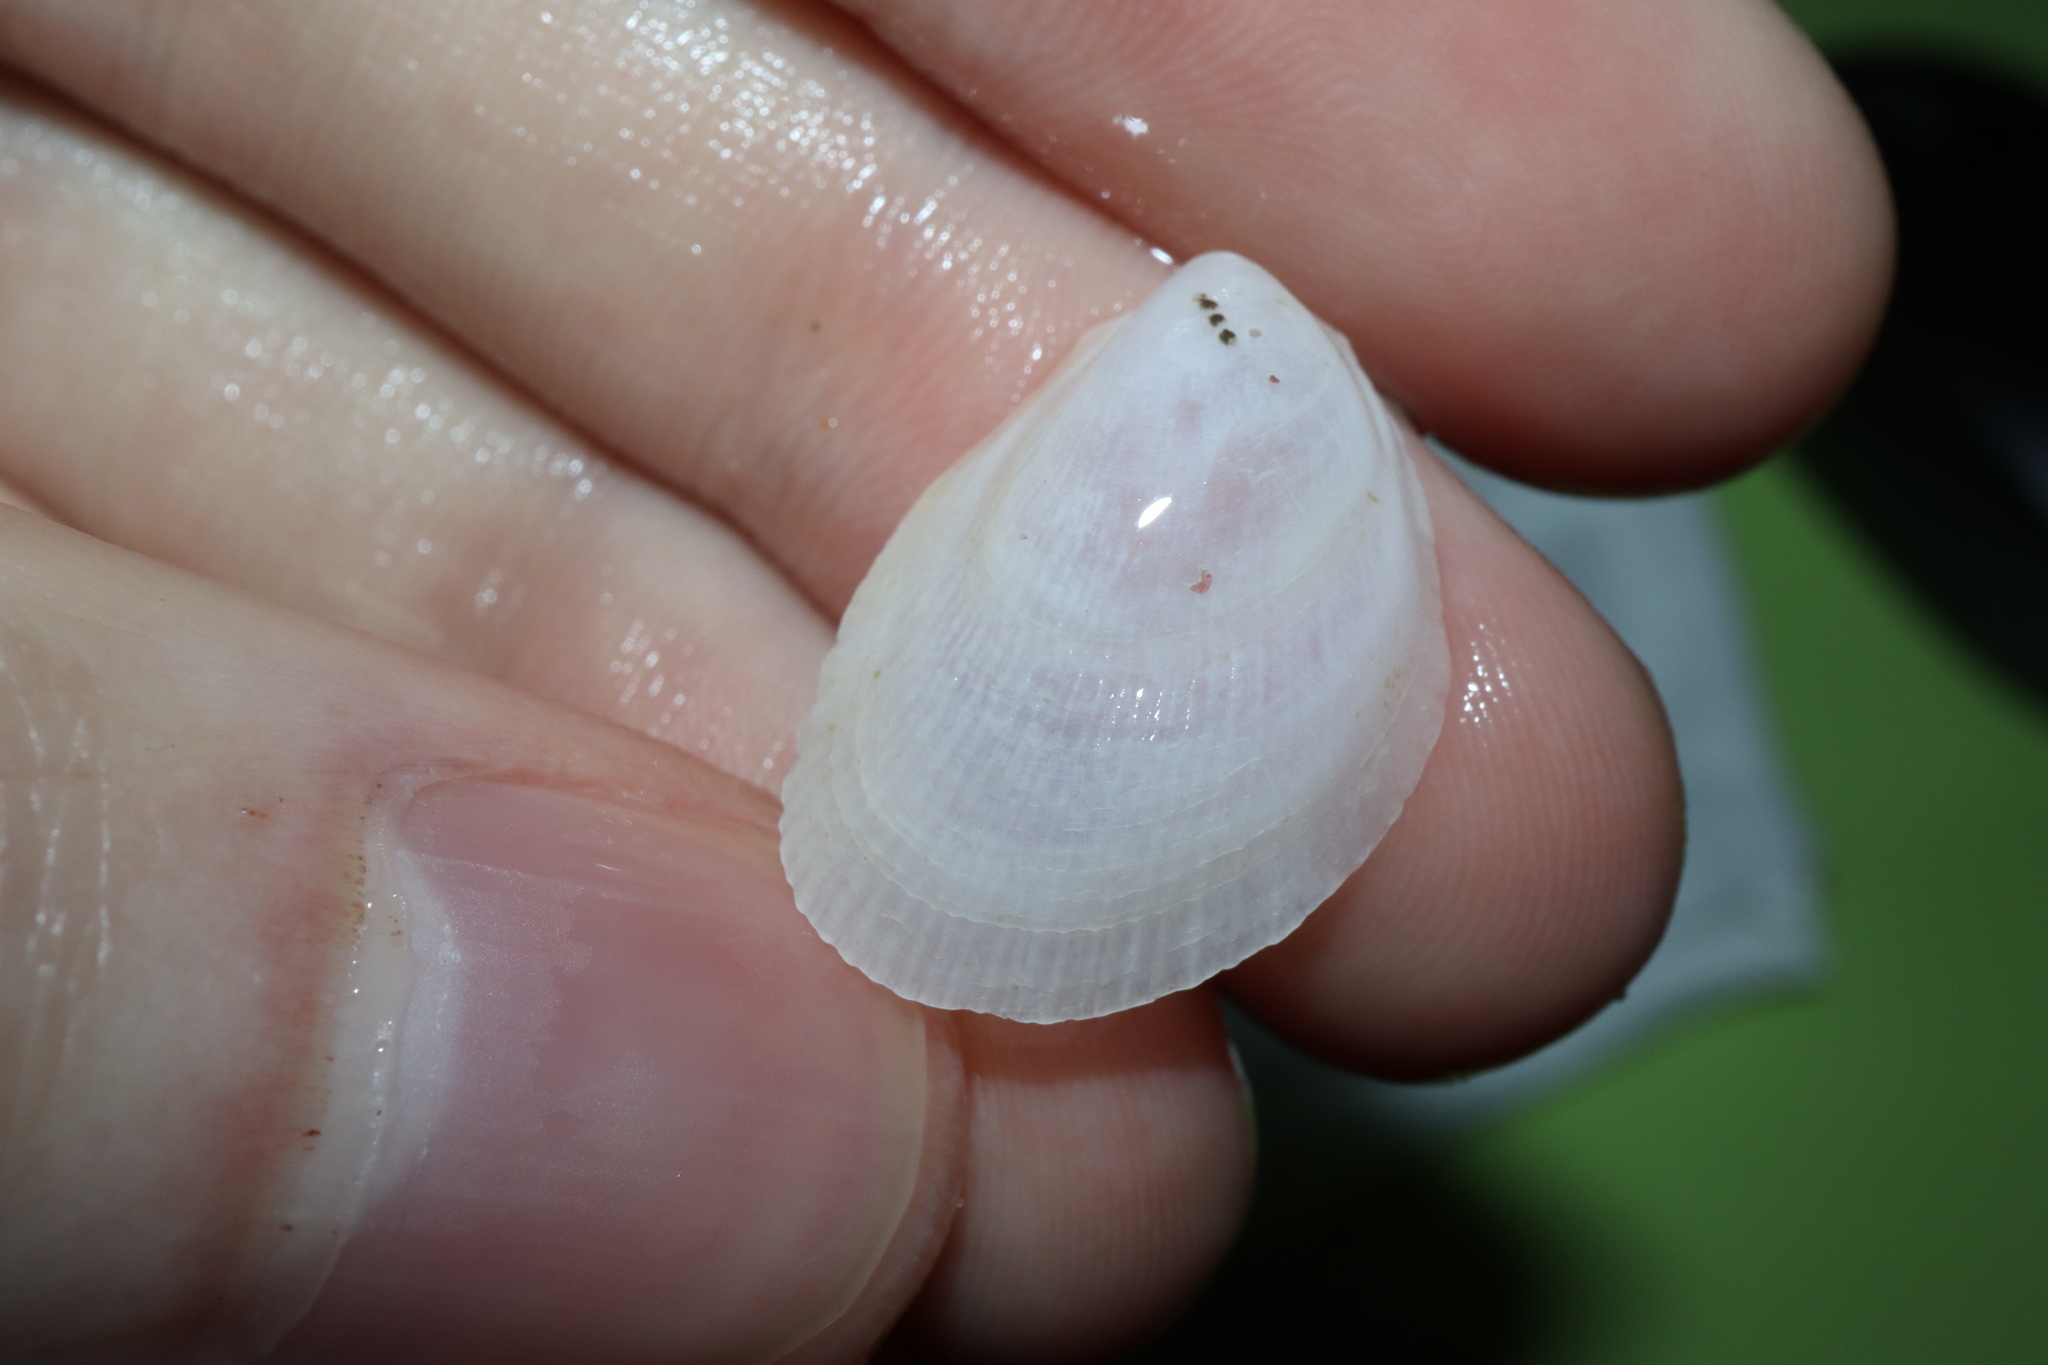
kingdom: Animalia
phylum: Mollusca
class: Bivalvia
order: Limida
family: Limidae
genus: Limaria
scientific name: Limaria orientalis
